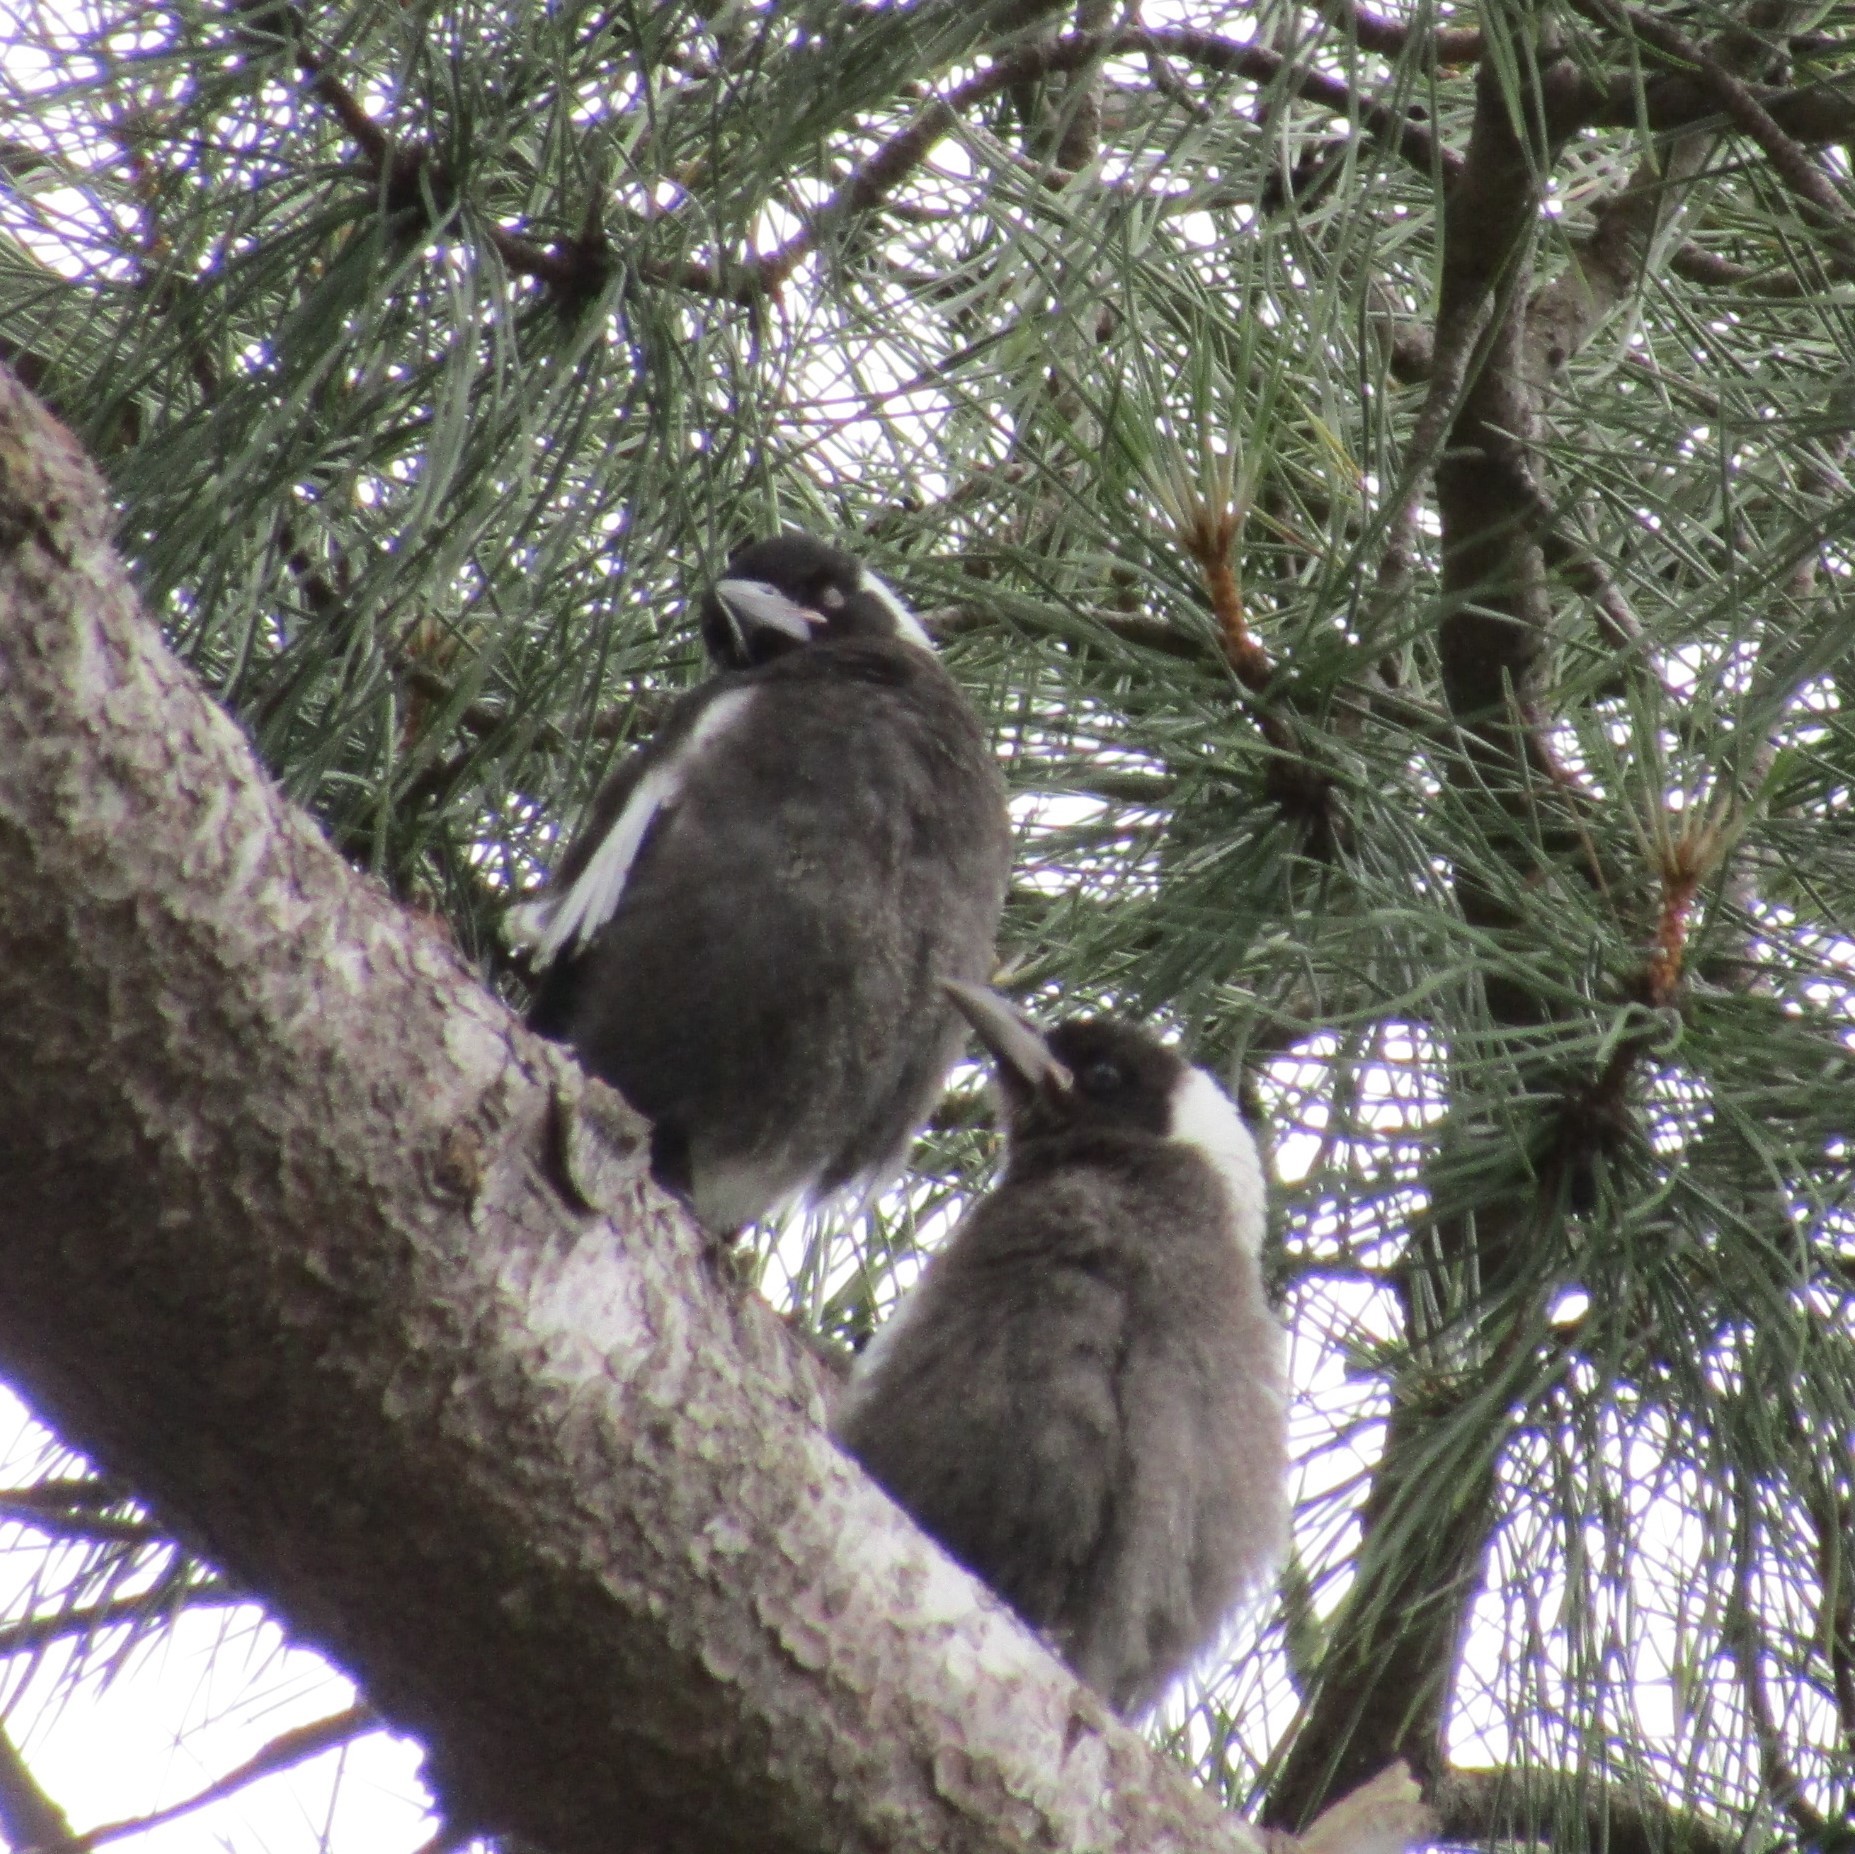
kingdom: Animalia
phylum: Chordata
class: Aves
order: Passeriformes
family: Cracticidae
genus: Gymnorhina
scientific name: Gymnorhina tibicen
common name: Australian magpie
